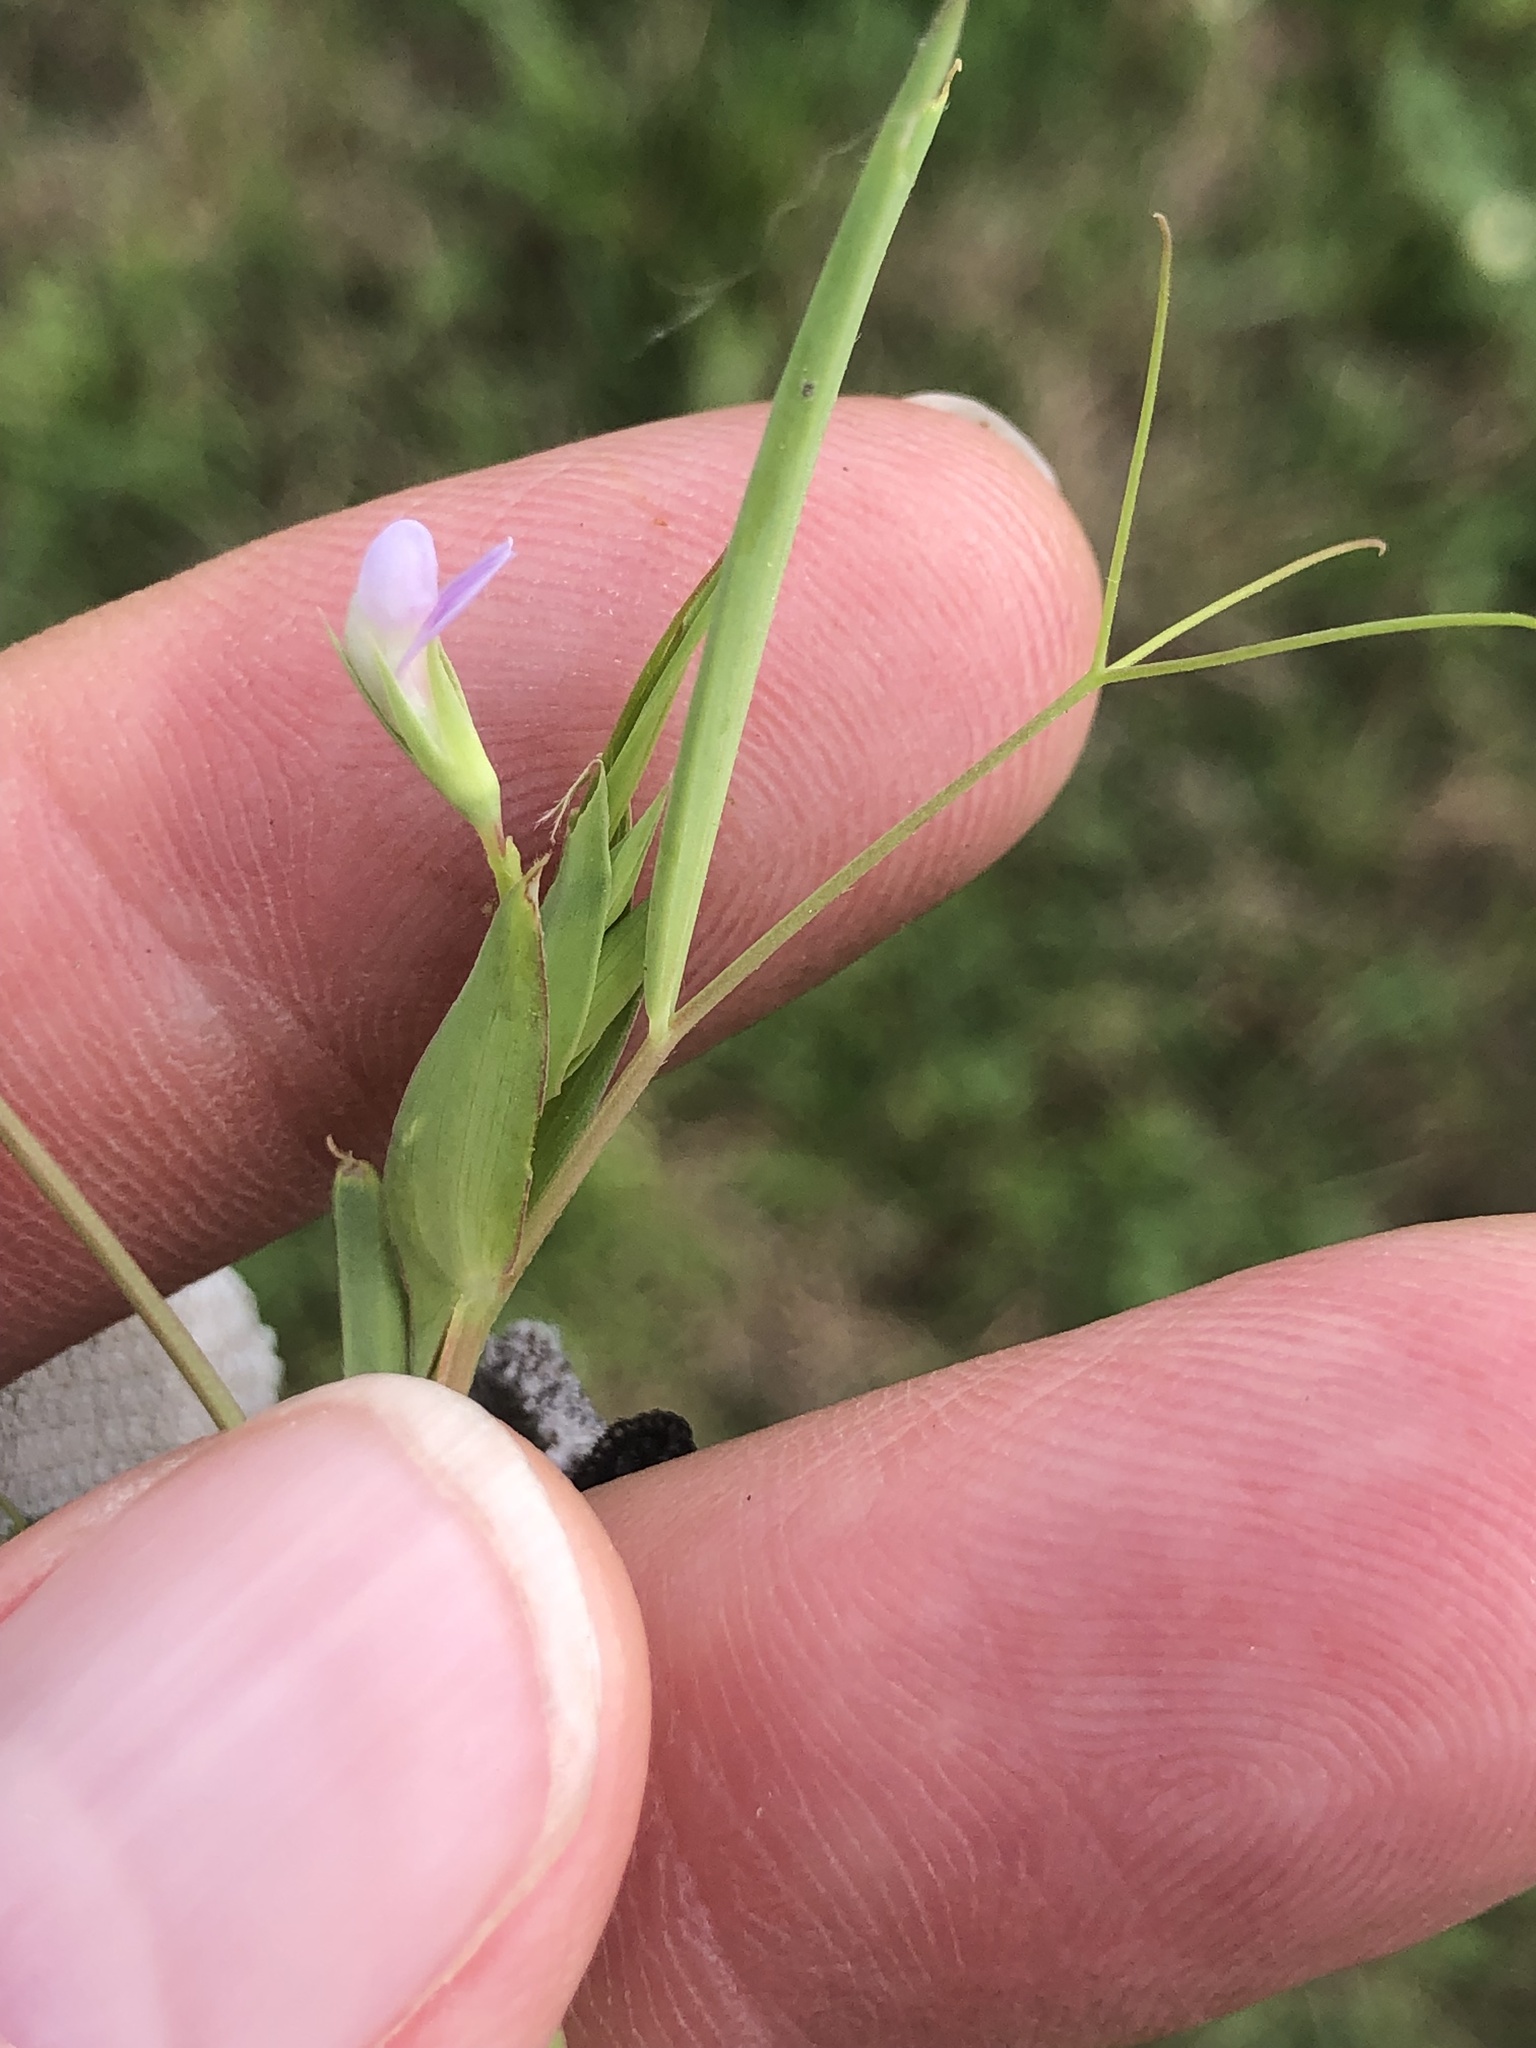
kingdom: Plantae
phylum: Tracheophyta
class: Magnoliopsida
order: Fabales
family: Fabaceae
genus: Lathyrus
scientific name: Lathyrus pusillus
